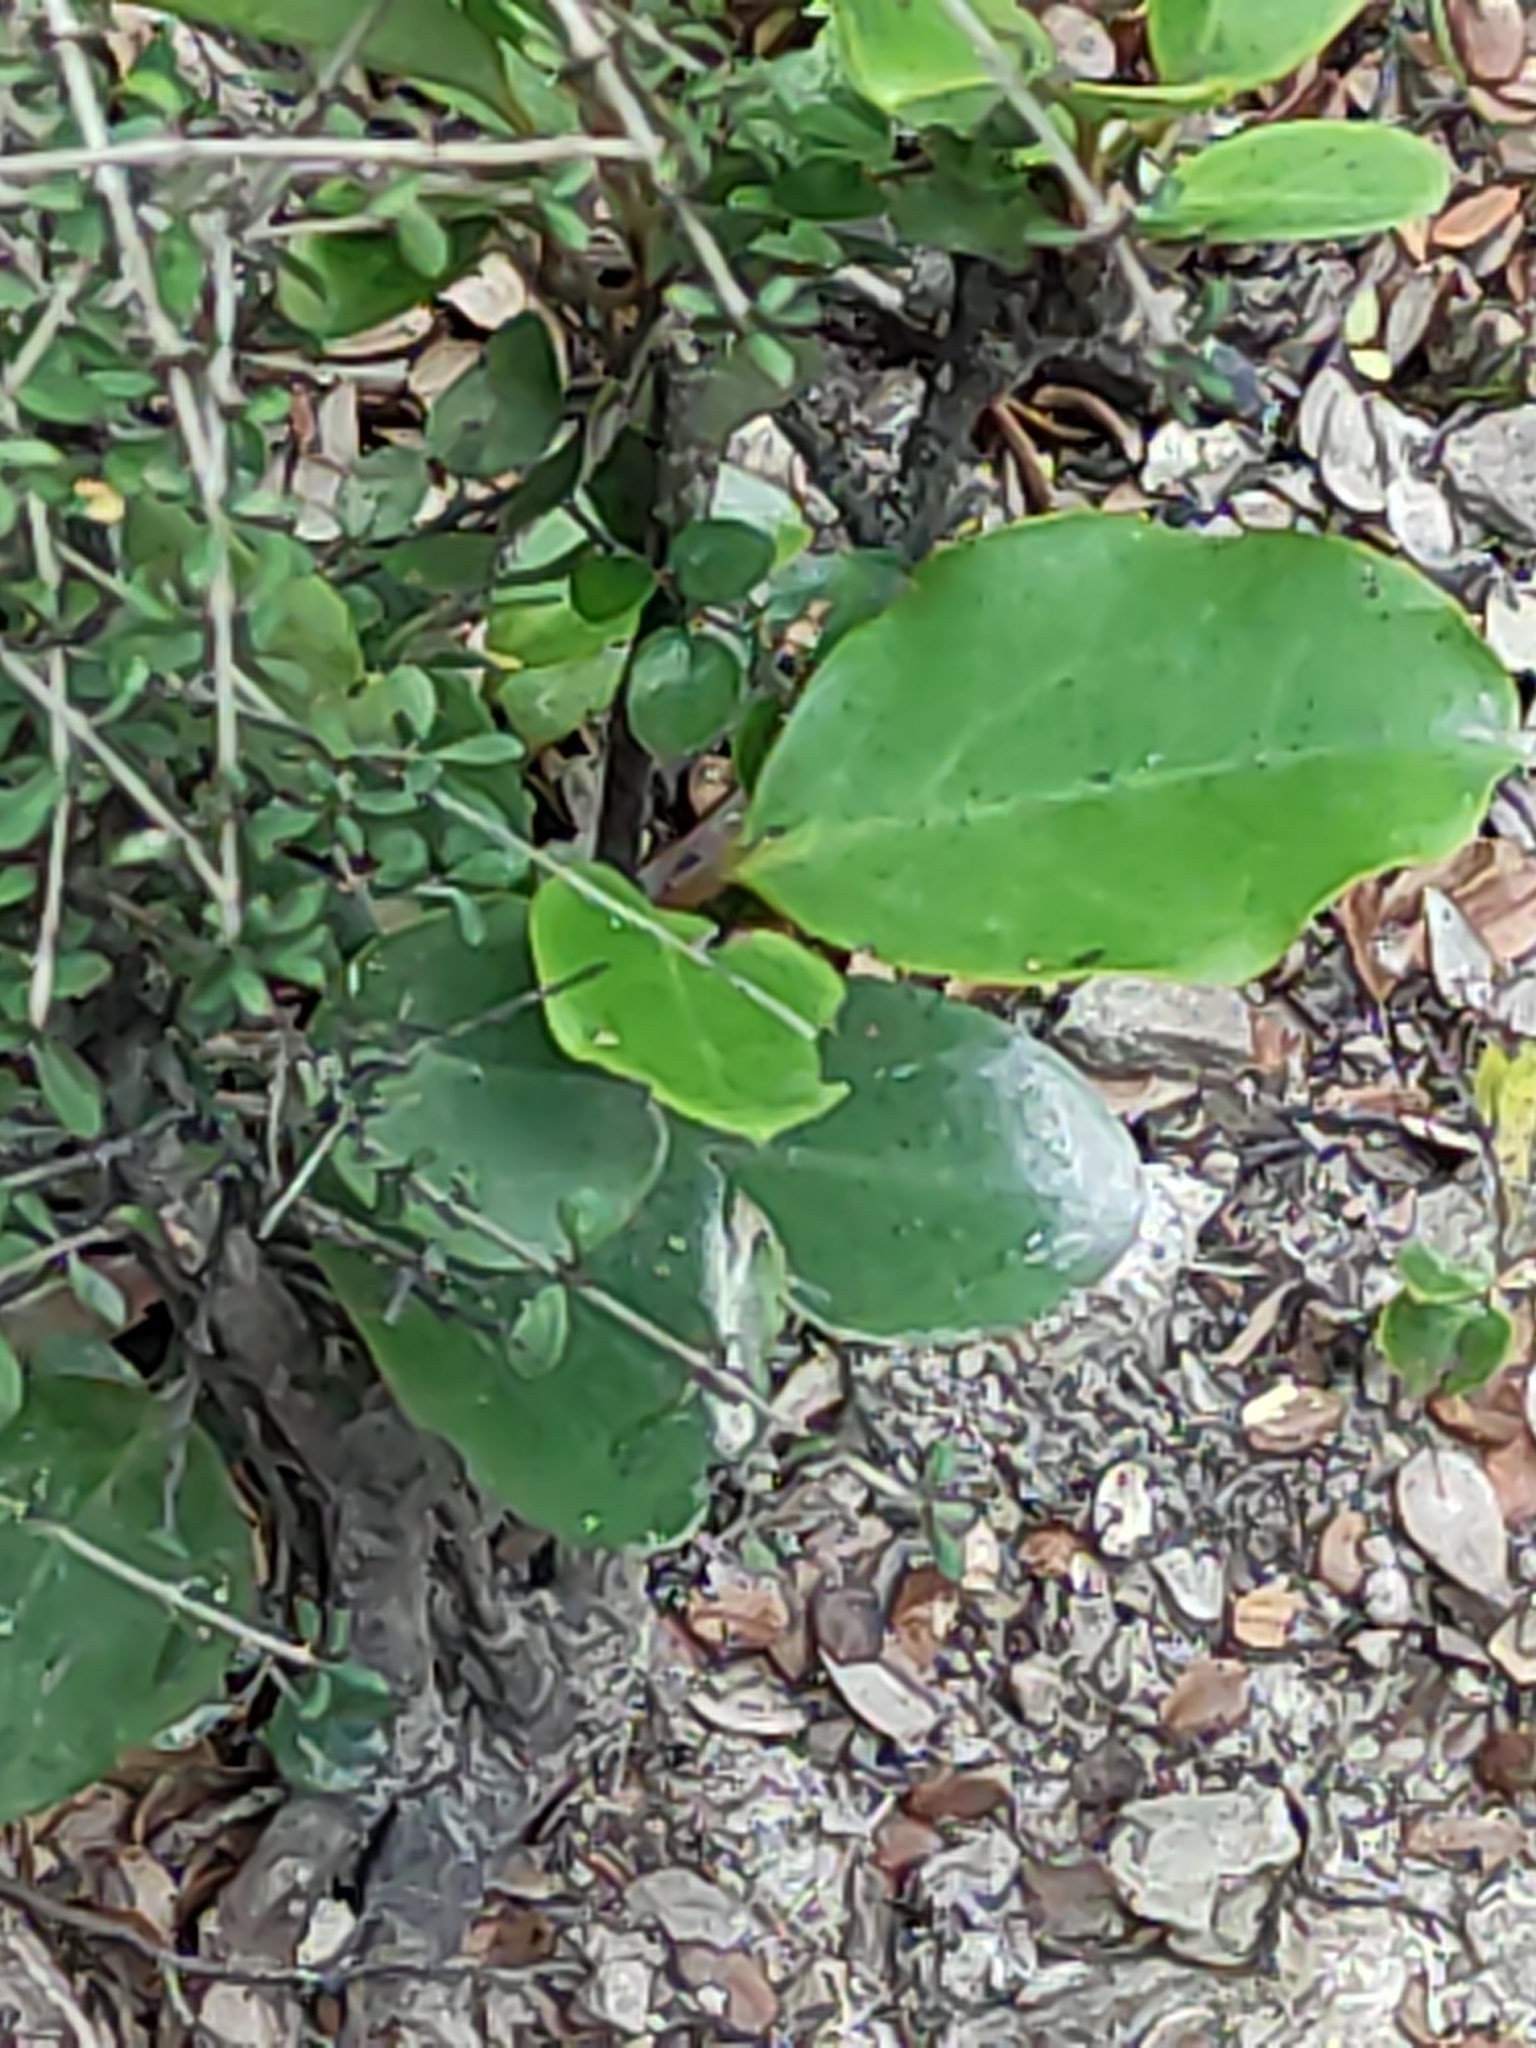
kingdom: Plantae
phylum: Tracheophyta
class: Magnoliopsida
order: Apiales
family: Griseliniaceae
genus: Griselinia
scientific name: Griselinia littoralis
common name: New zealand broadleaf
